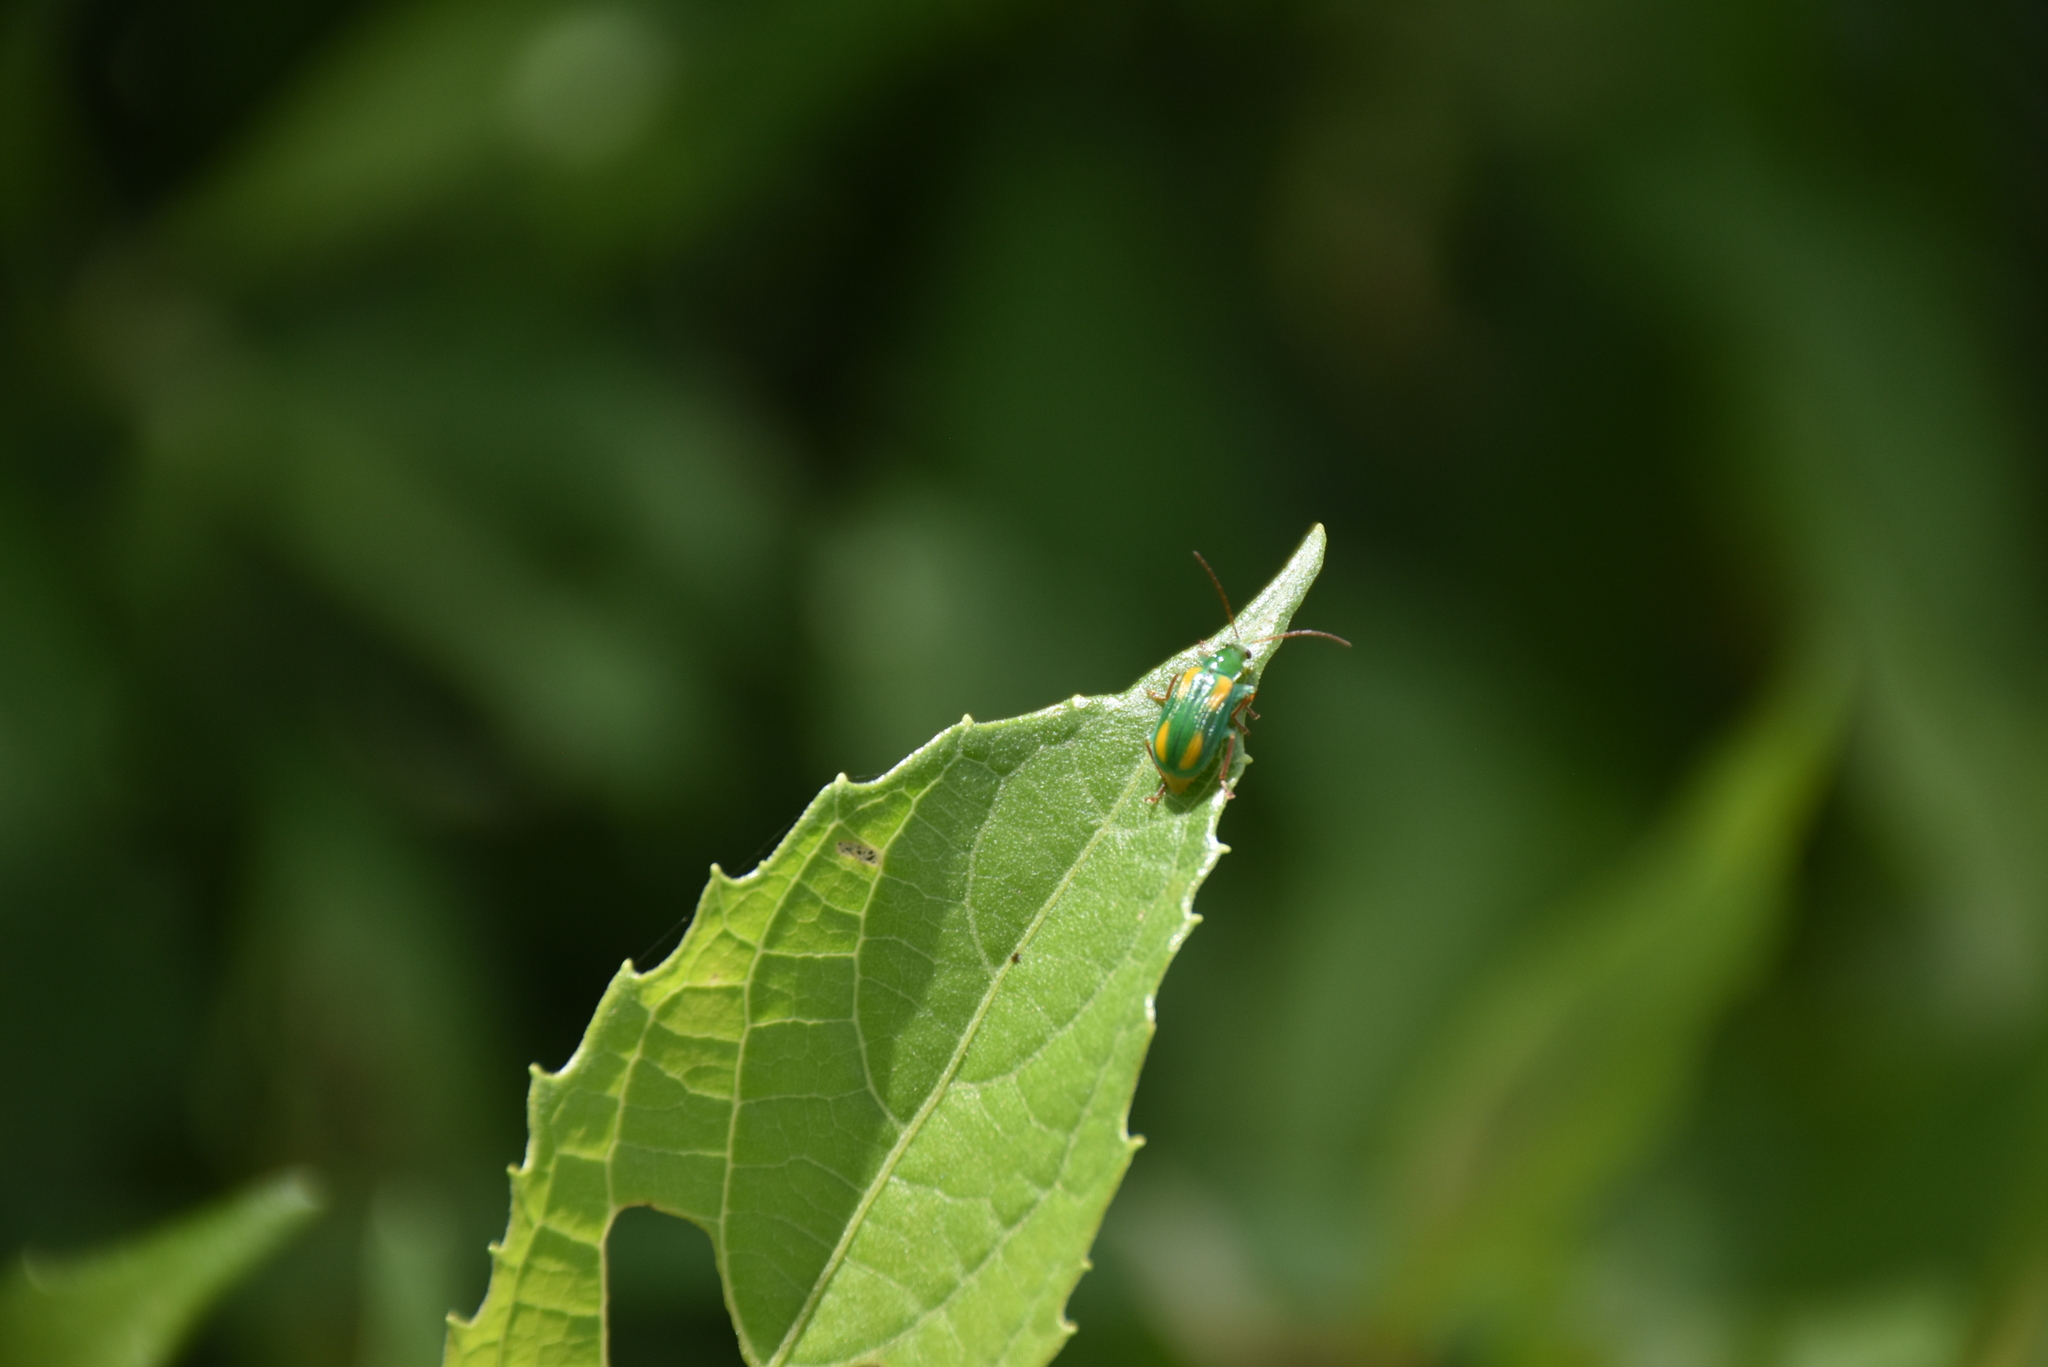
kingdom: Animalia
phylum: Arthropoda
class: Insecta
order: Coleoptera
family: Chrysomelidae
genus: Diabrotica
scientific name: Diabrotica porracea
